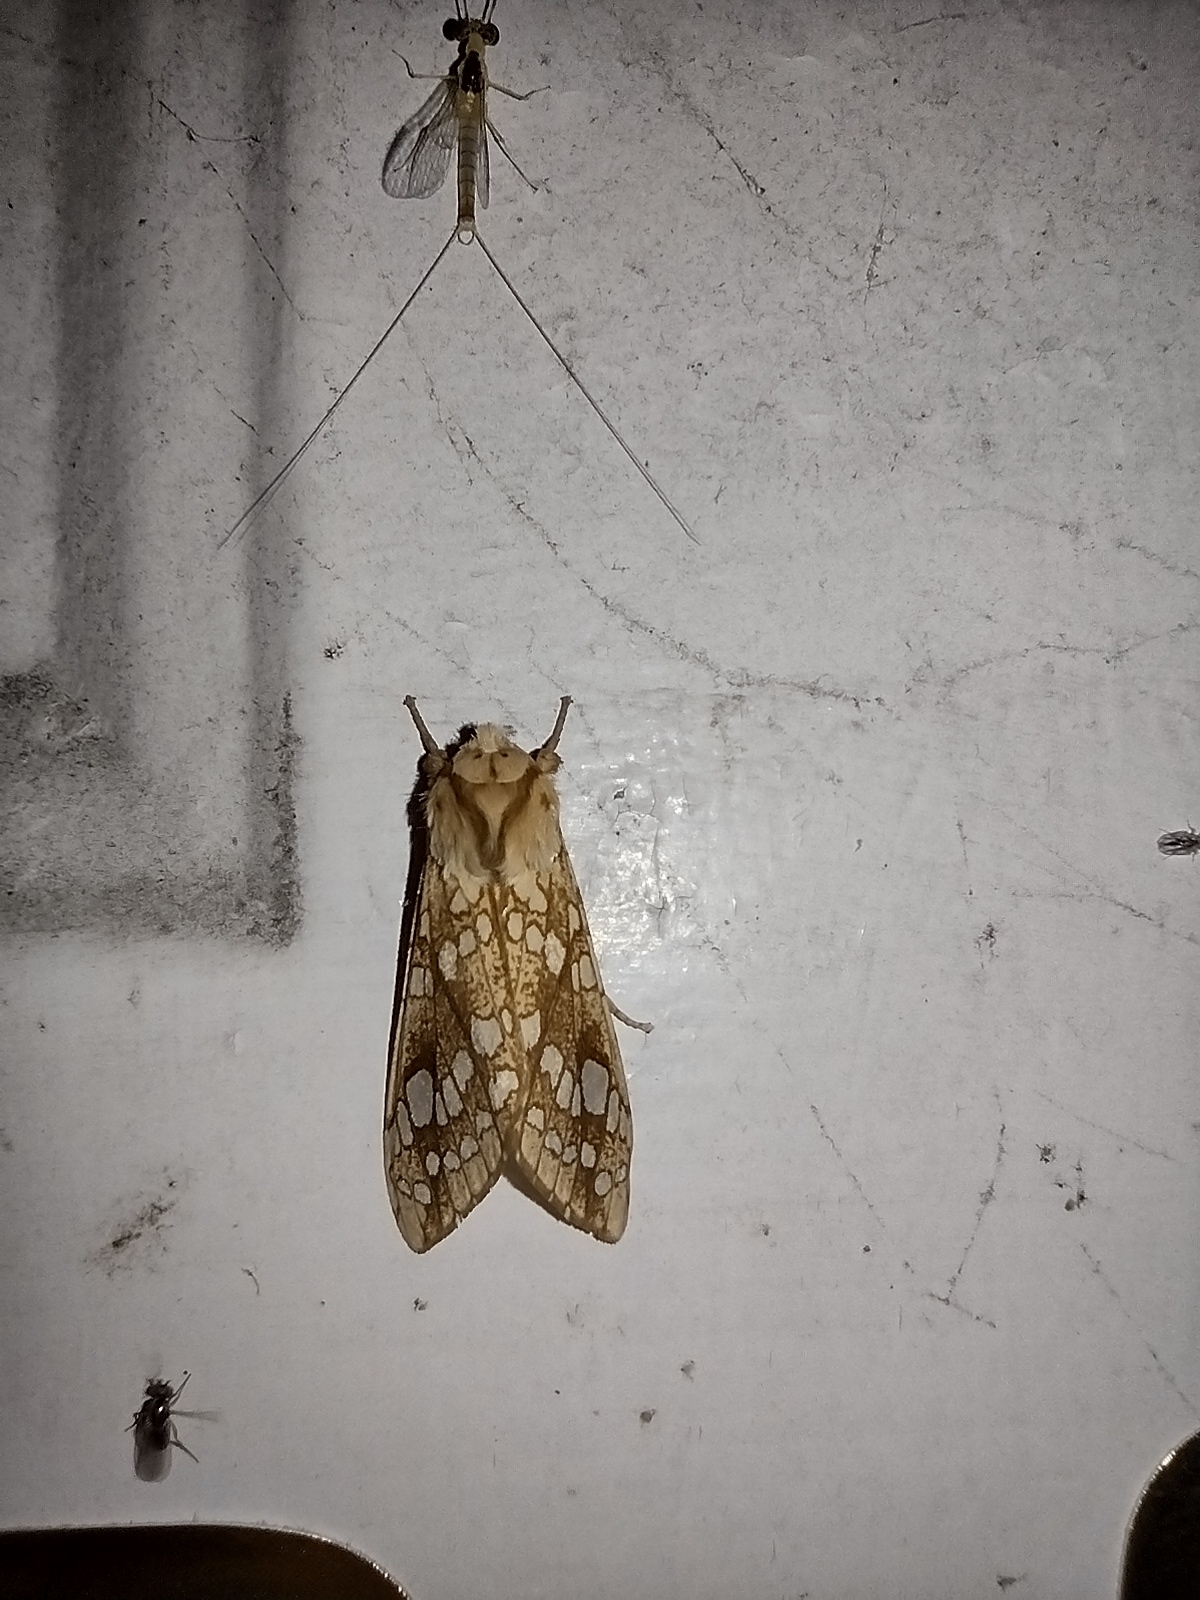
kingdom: Animalia
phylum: Arthropoda
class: Insecta
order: Lepidoptera
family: Erebidae
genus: Lophocampa
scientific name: Lophocampa caryae
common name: Hickory tussock moth
